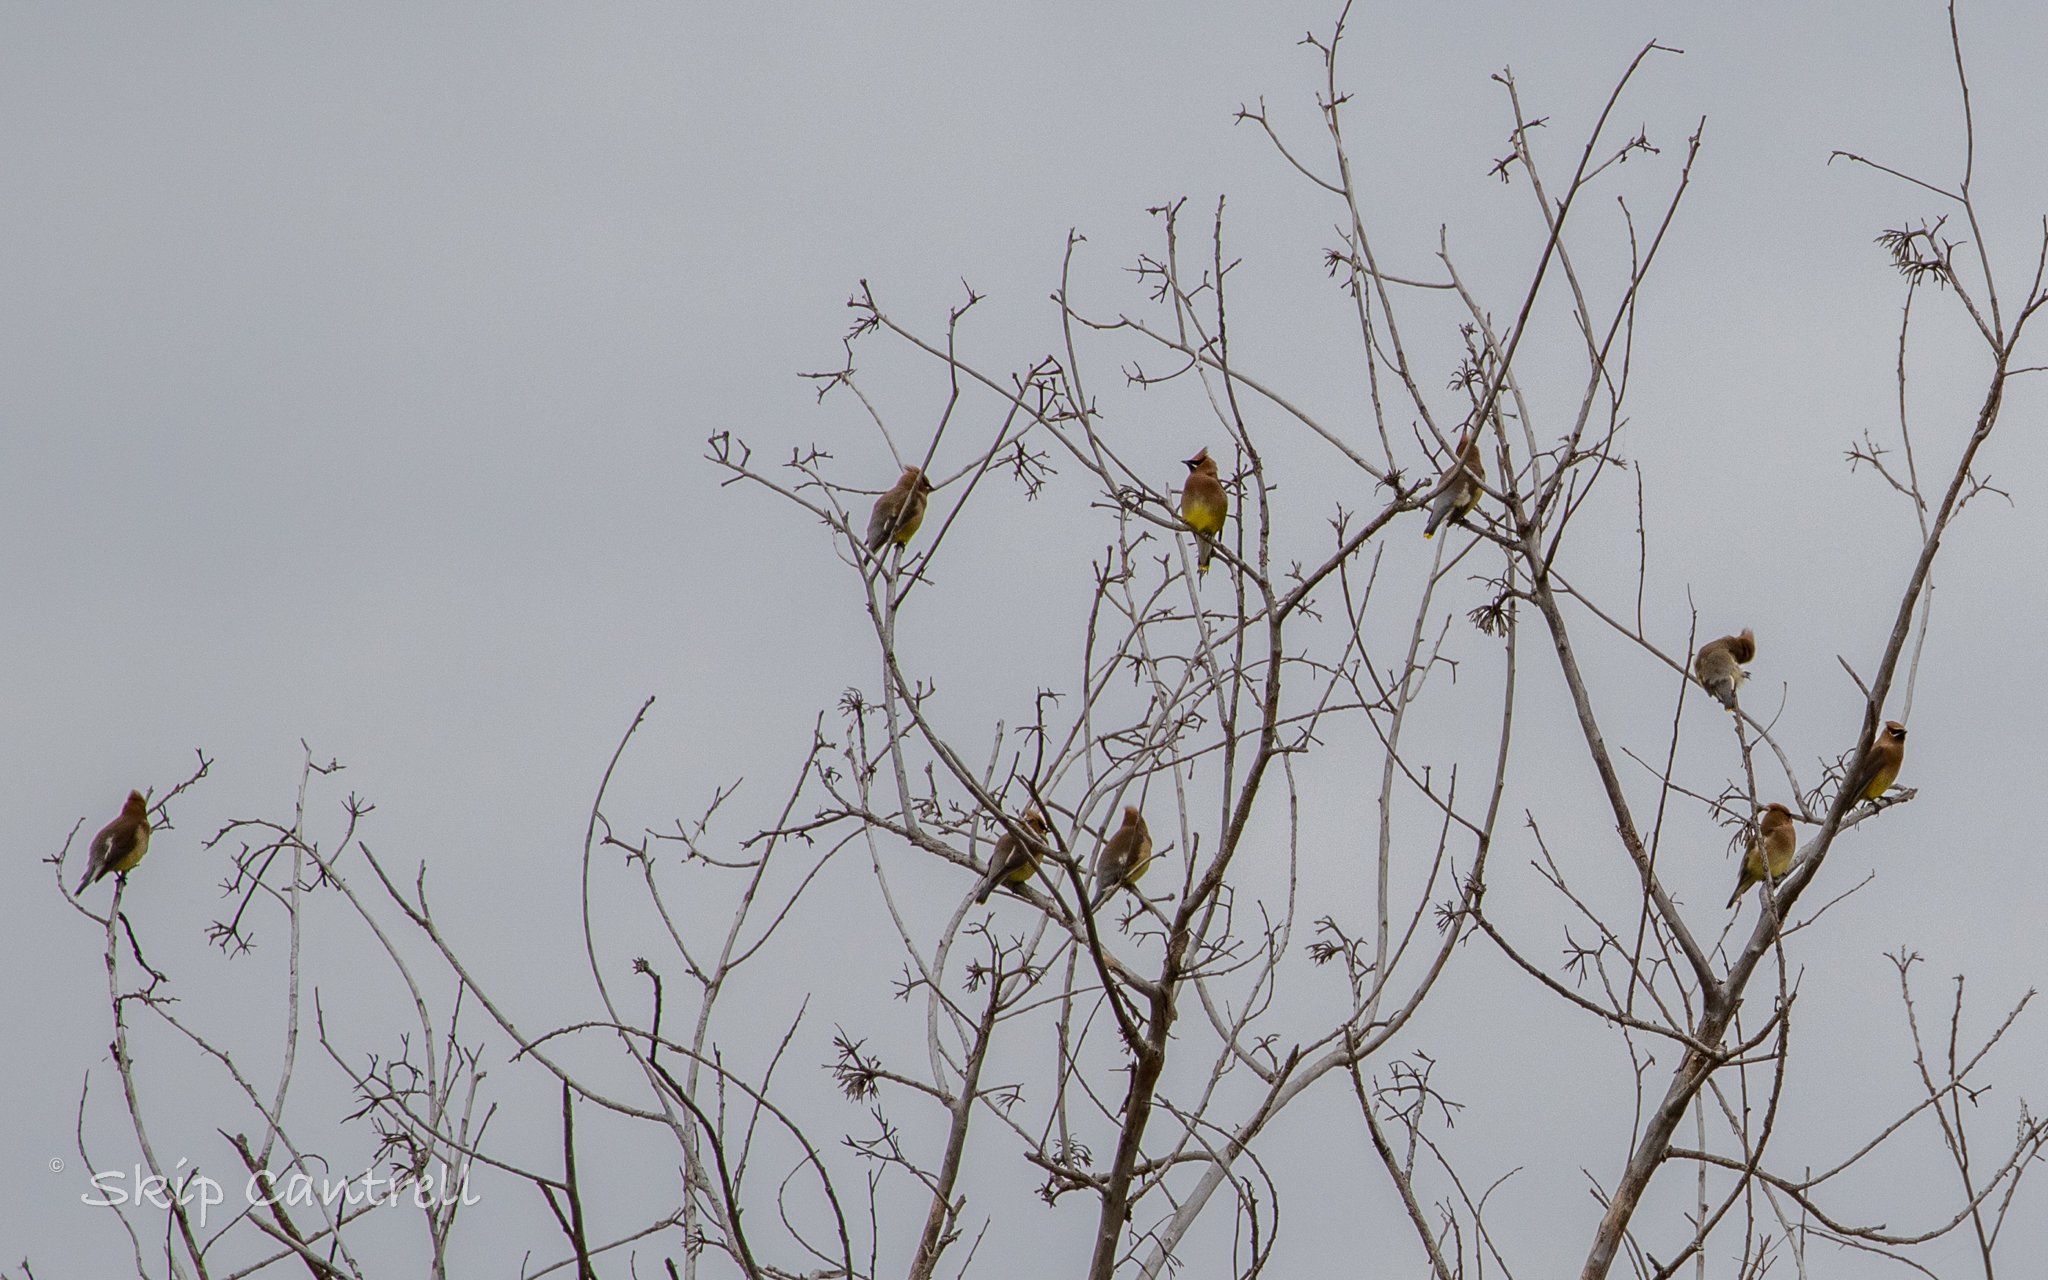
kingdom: Animalia
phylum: Chordata
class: Aves
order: Passeriformes
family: Bombycillidae
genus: Bombycilla
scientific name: Bombycilla cedrorum
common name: Cedar waxwing
